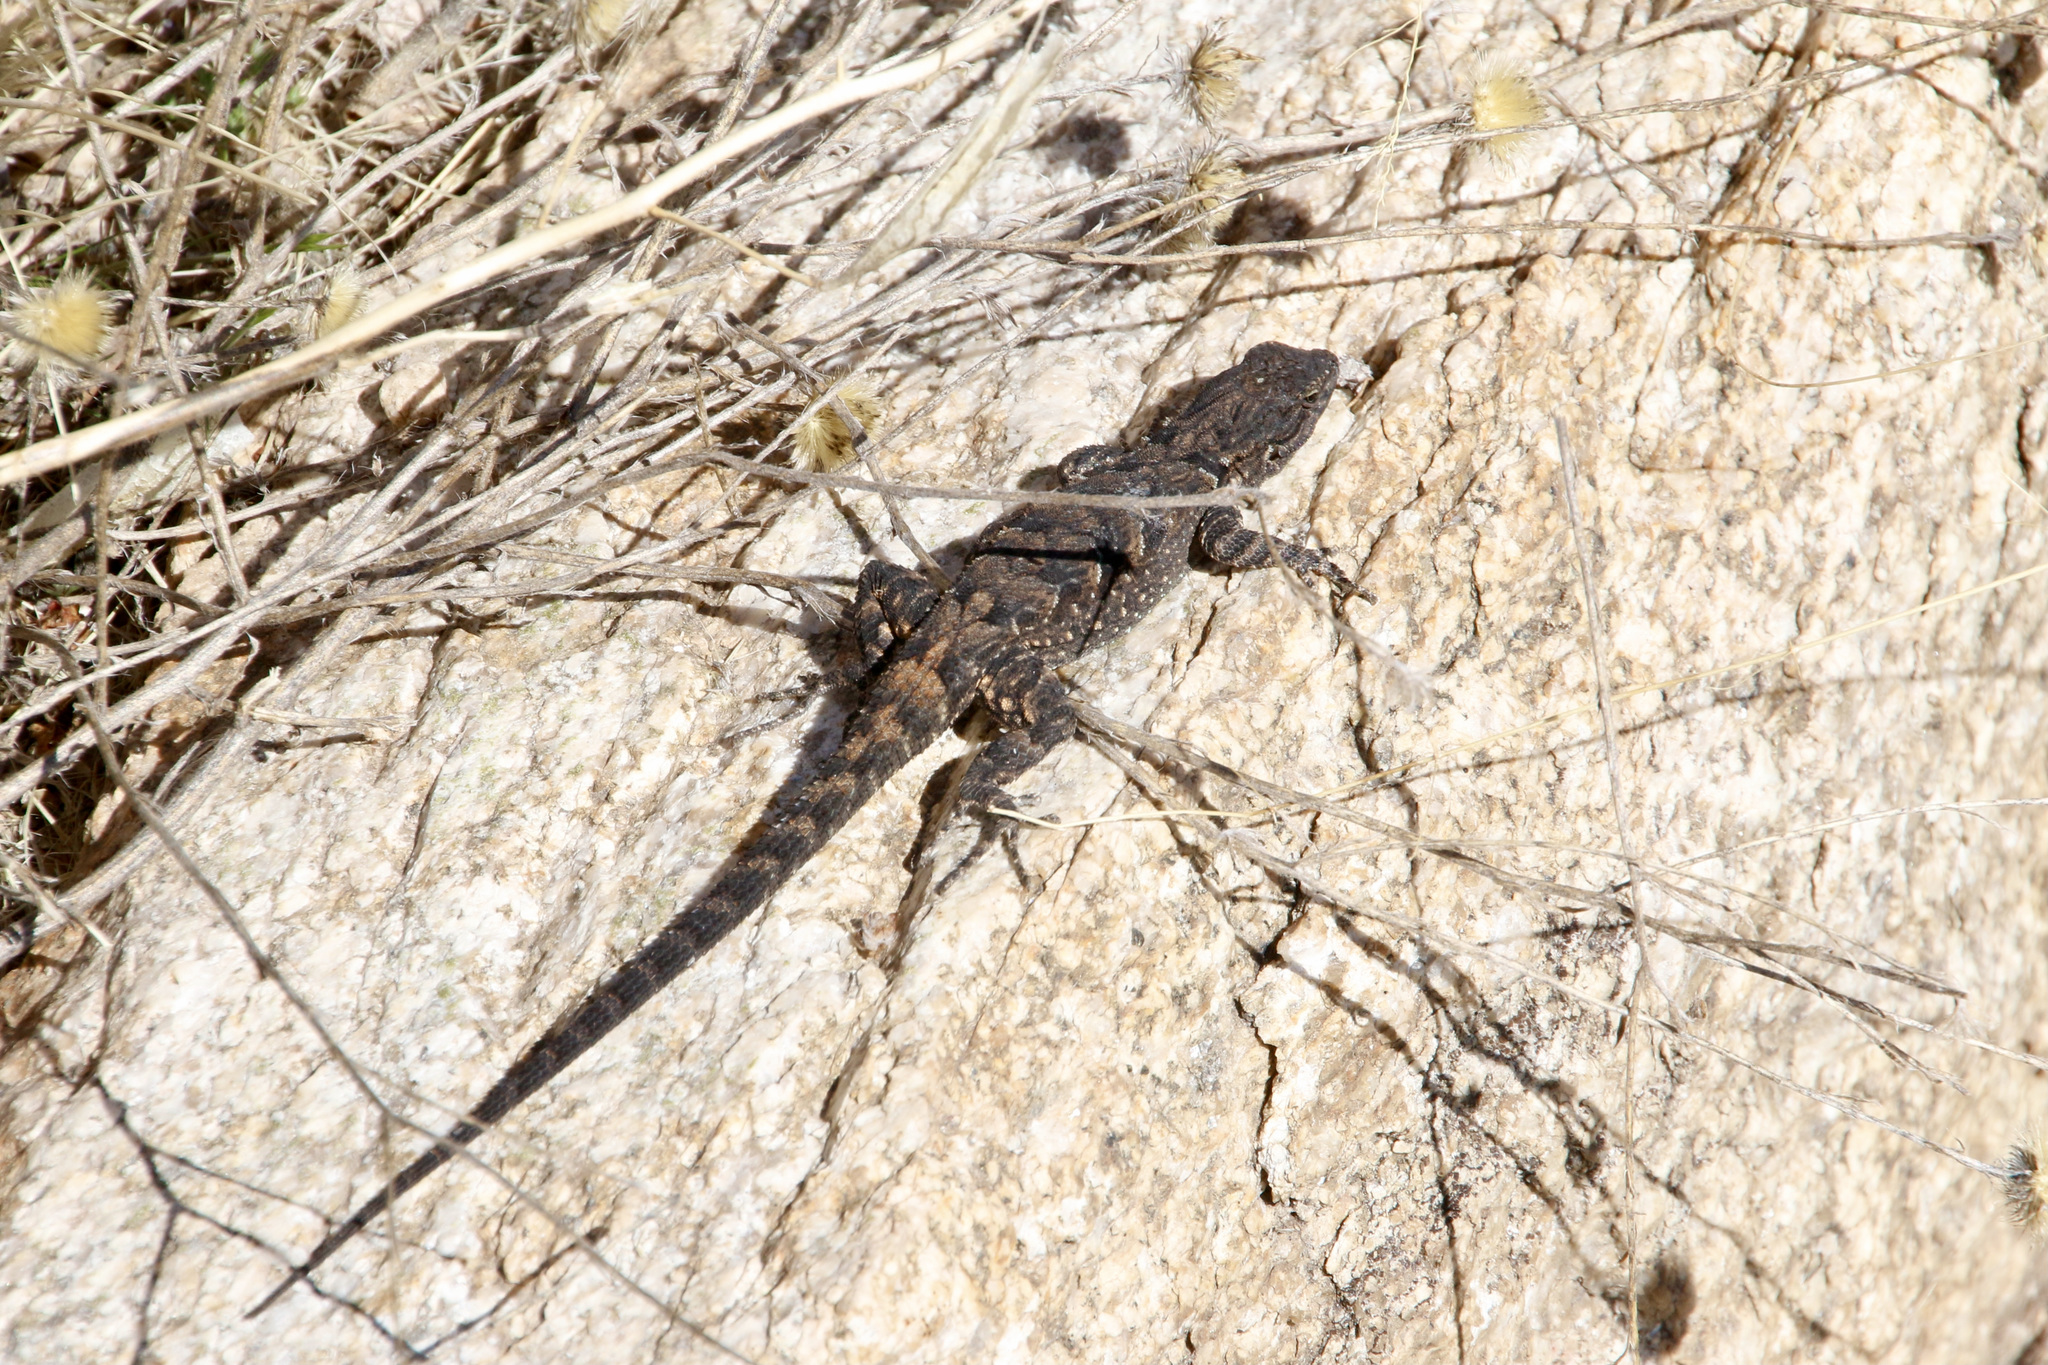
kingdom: Animalia
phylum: Chordata
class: Squamata
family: Phrynosomatidae
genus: Urosaurus
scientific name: Urosaurus ornatus
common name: Ornate tree lizard
